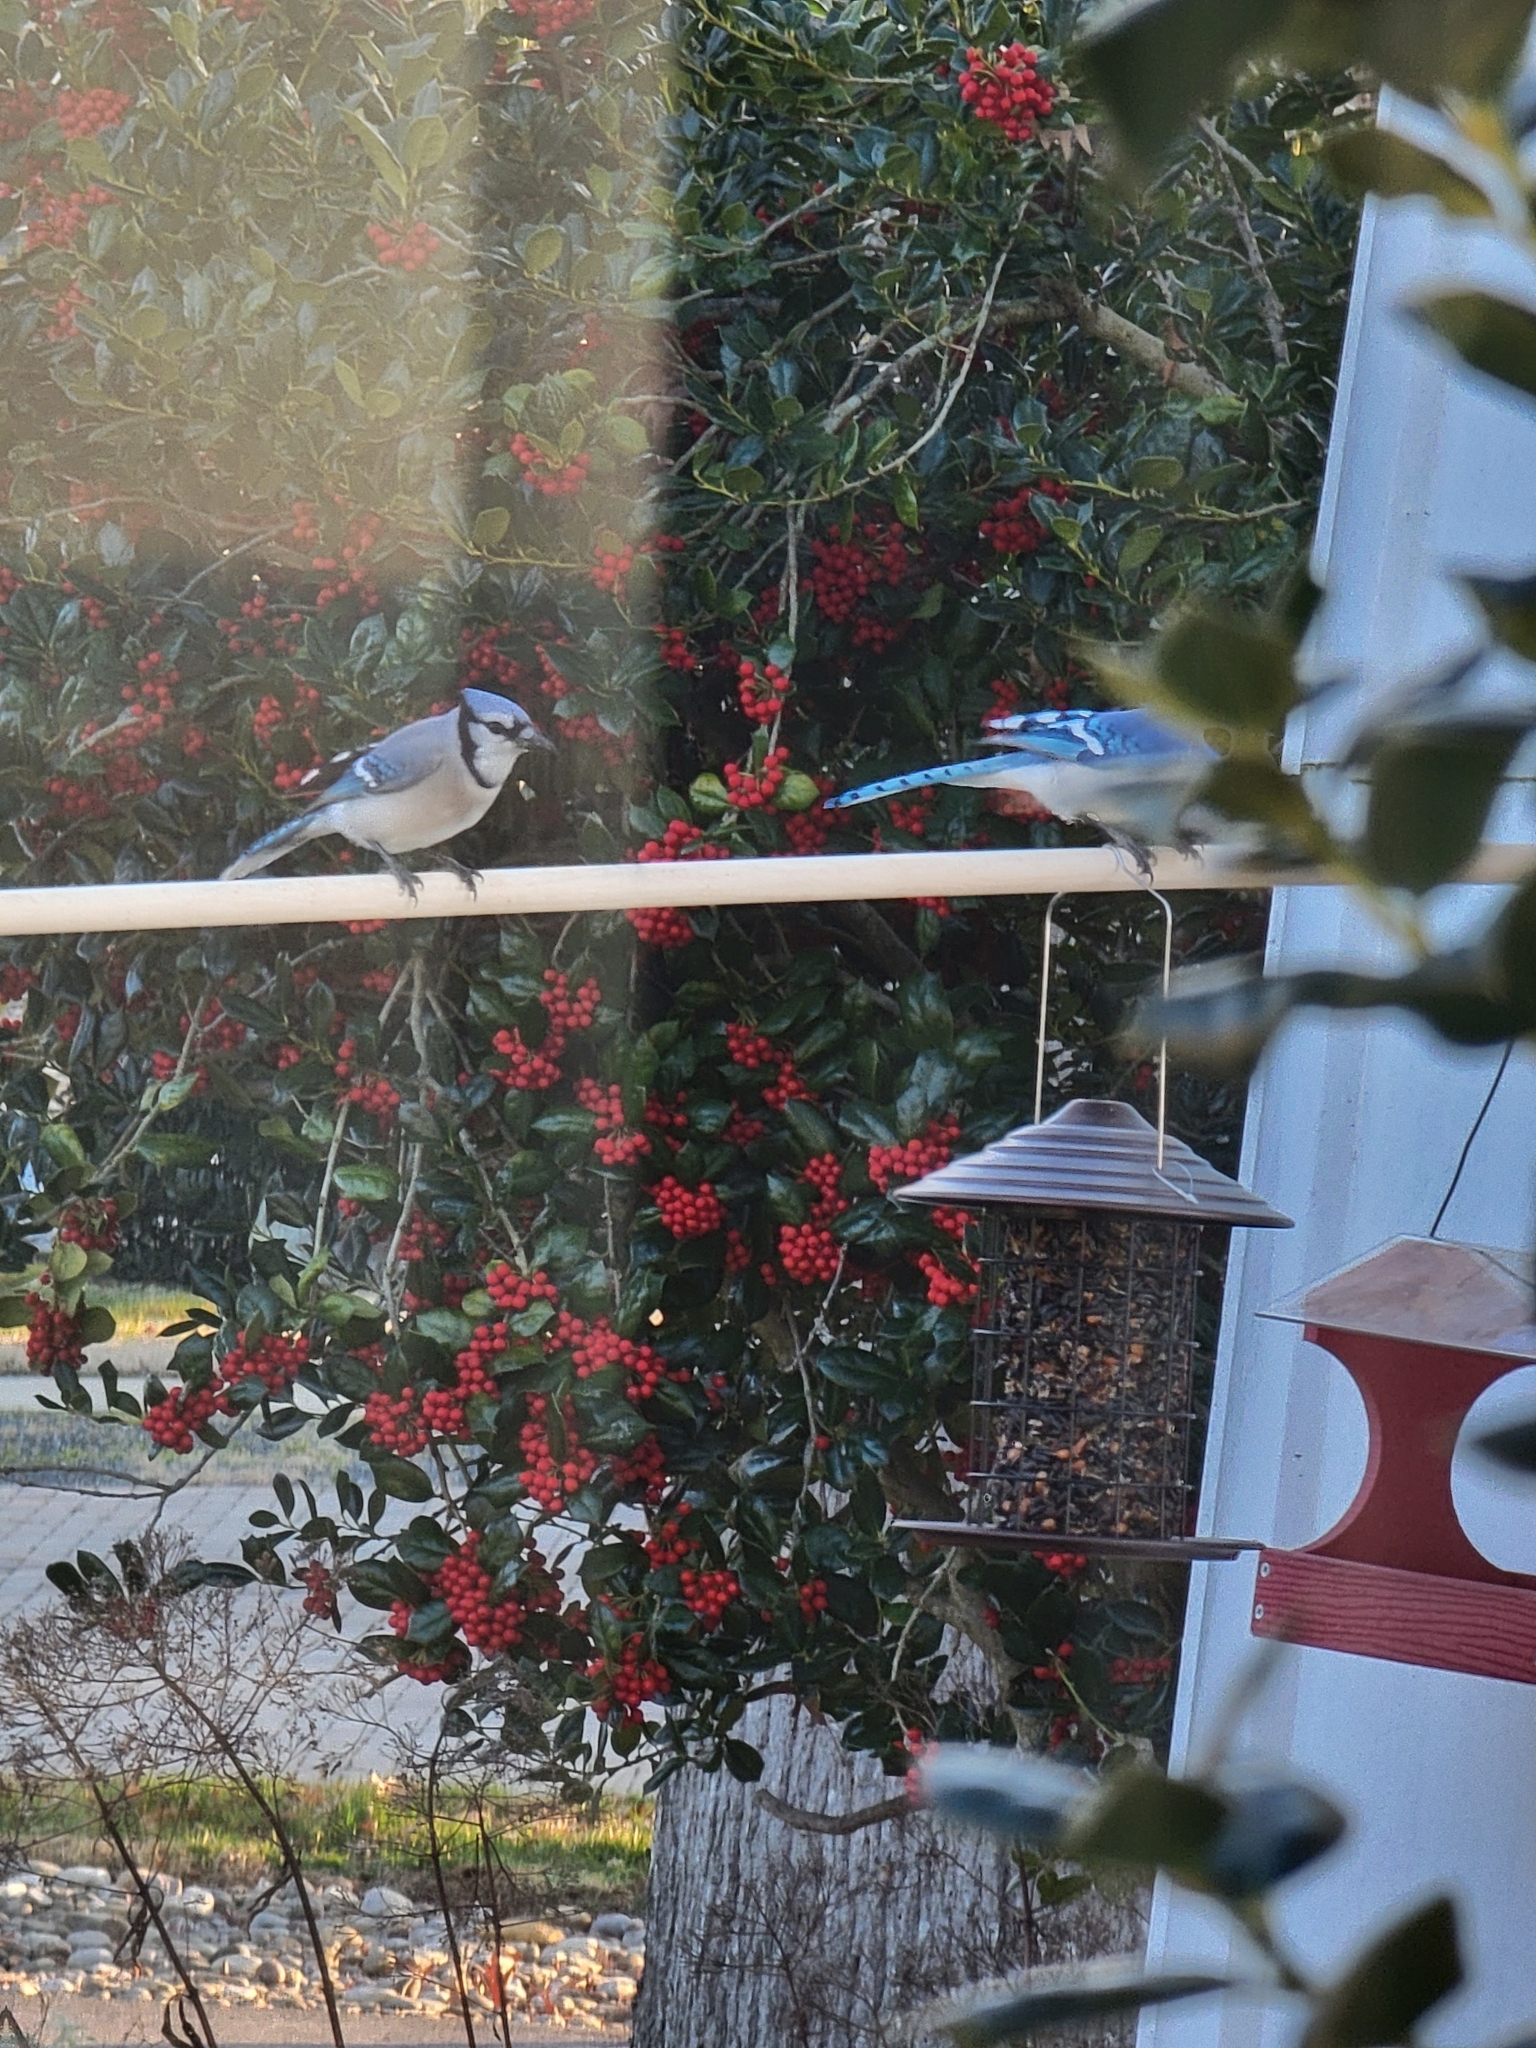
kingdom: Animalia
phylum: Chordata
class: Aves
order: Passeriformes
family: Corvidae
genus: Cyanocitta
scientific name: Cyanocitta cristata
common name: Blue jay
